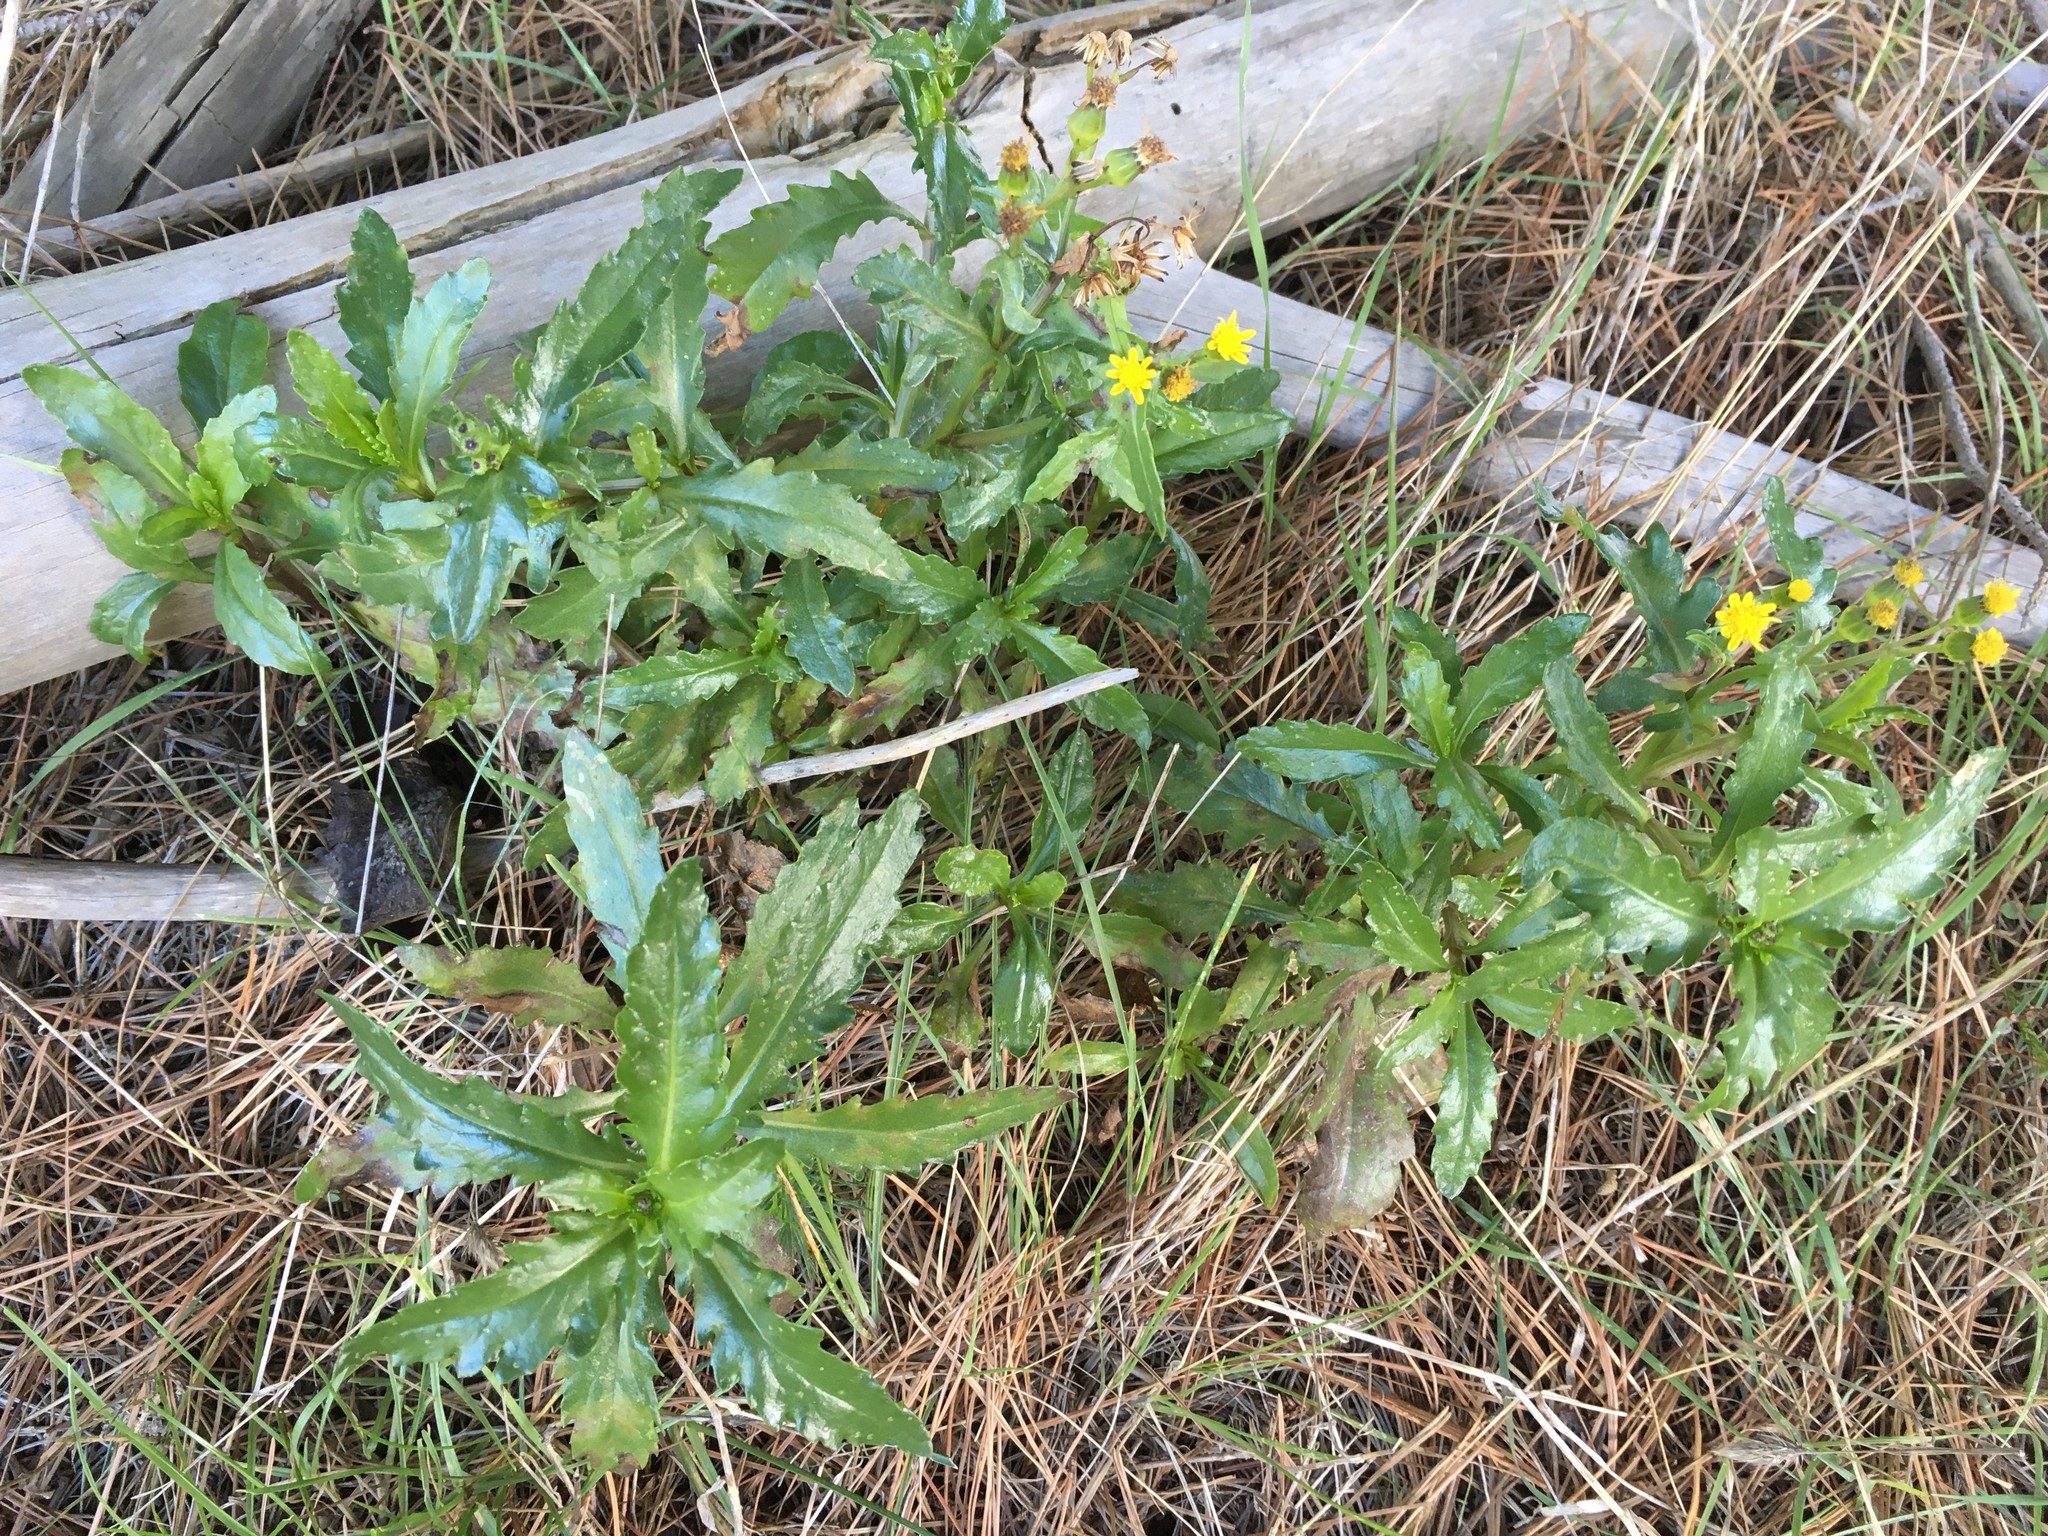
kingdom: Plantae
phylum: Tracheophyta
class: Magnoliopsida
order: Asterales
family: Asteraceae
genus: Senecio
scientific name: Senecio matatini
